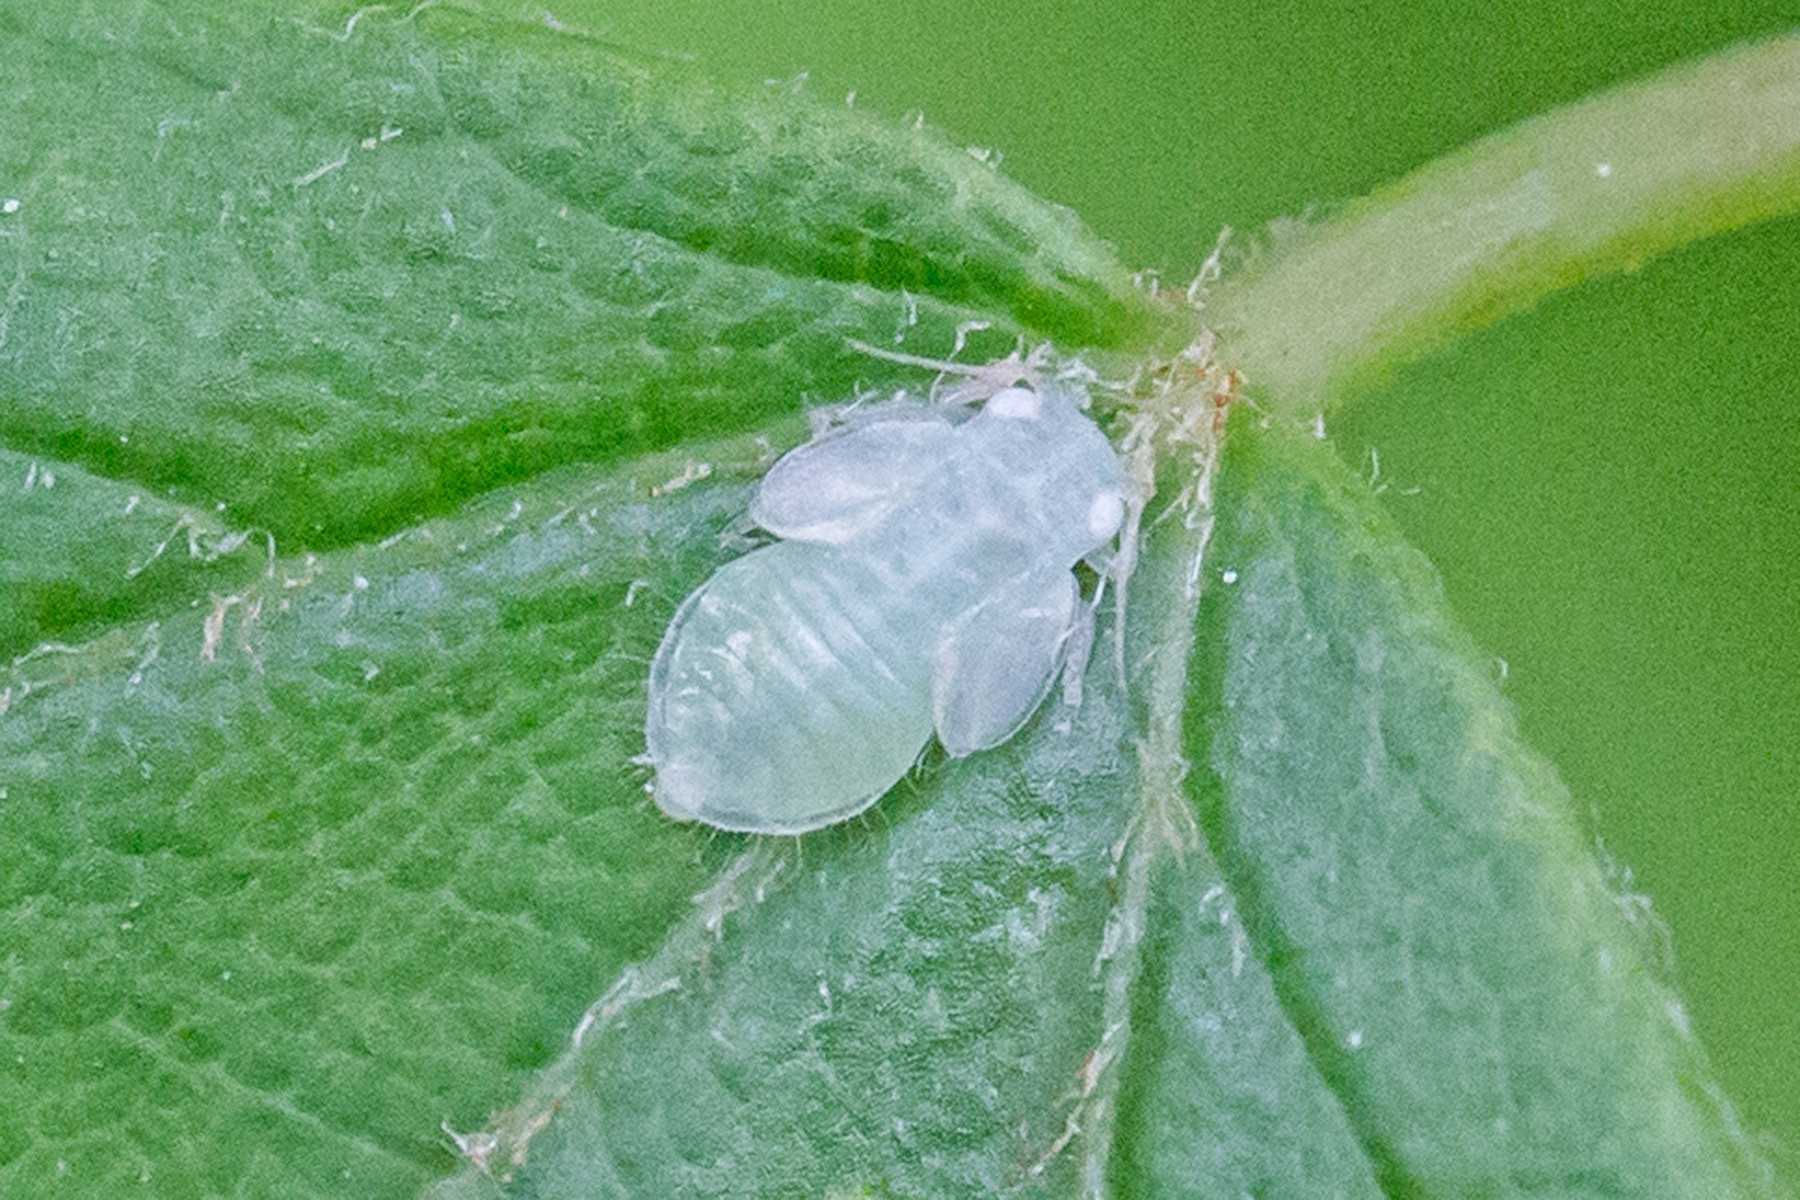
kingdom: Animalia
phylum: Arthropoda
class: Insecta
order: Hemiptera
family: Psyllidae
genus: Cacopsylla
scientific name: Cacopsylla annulata
